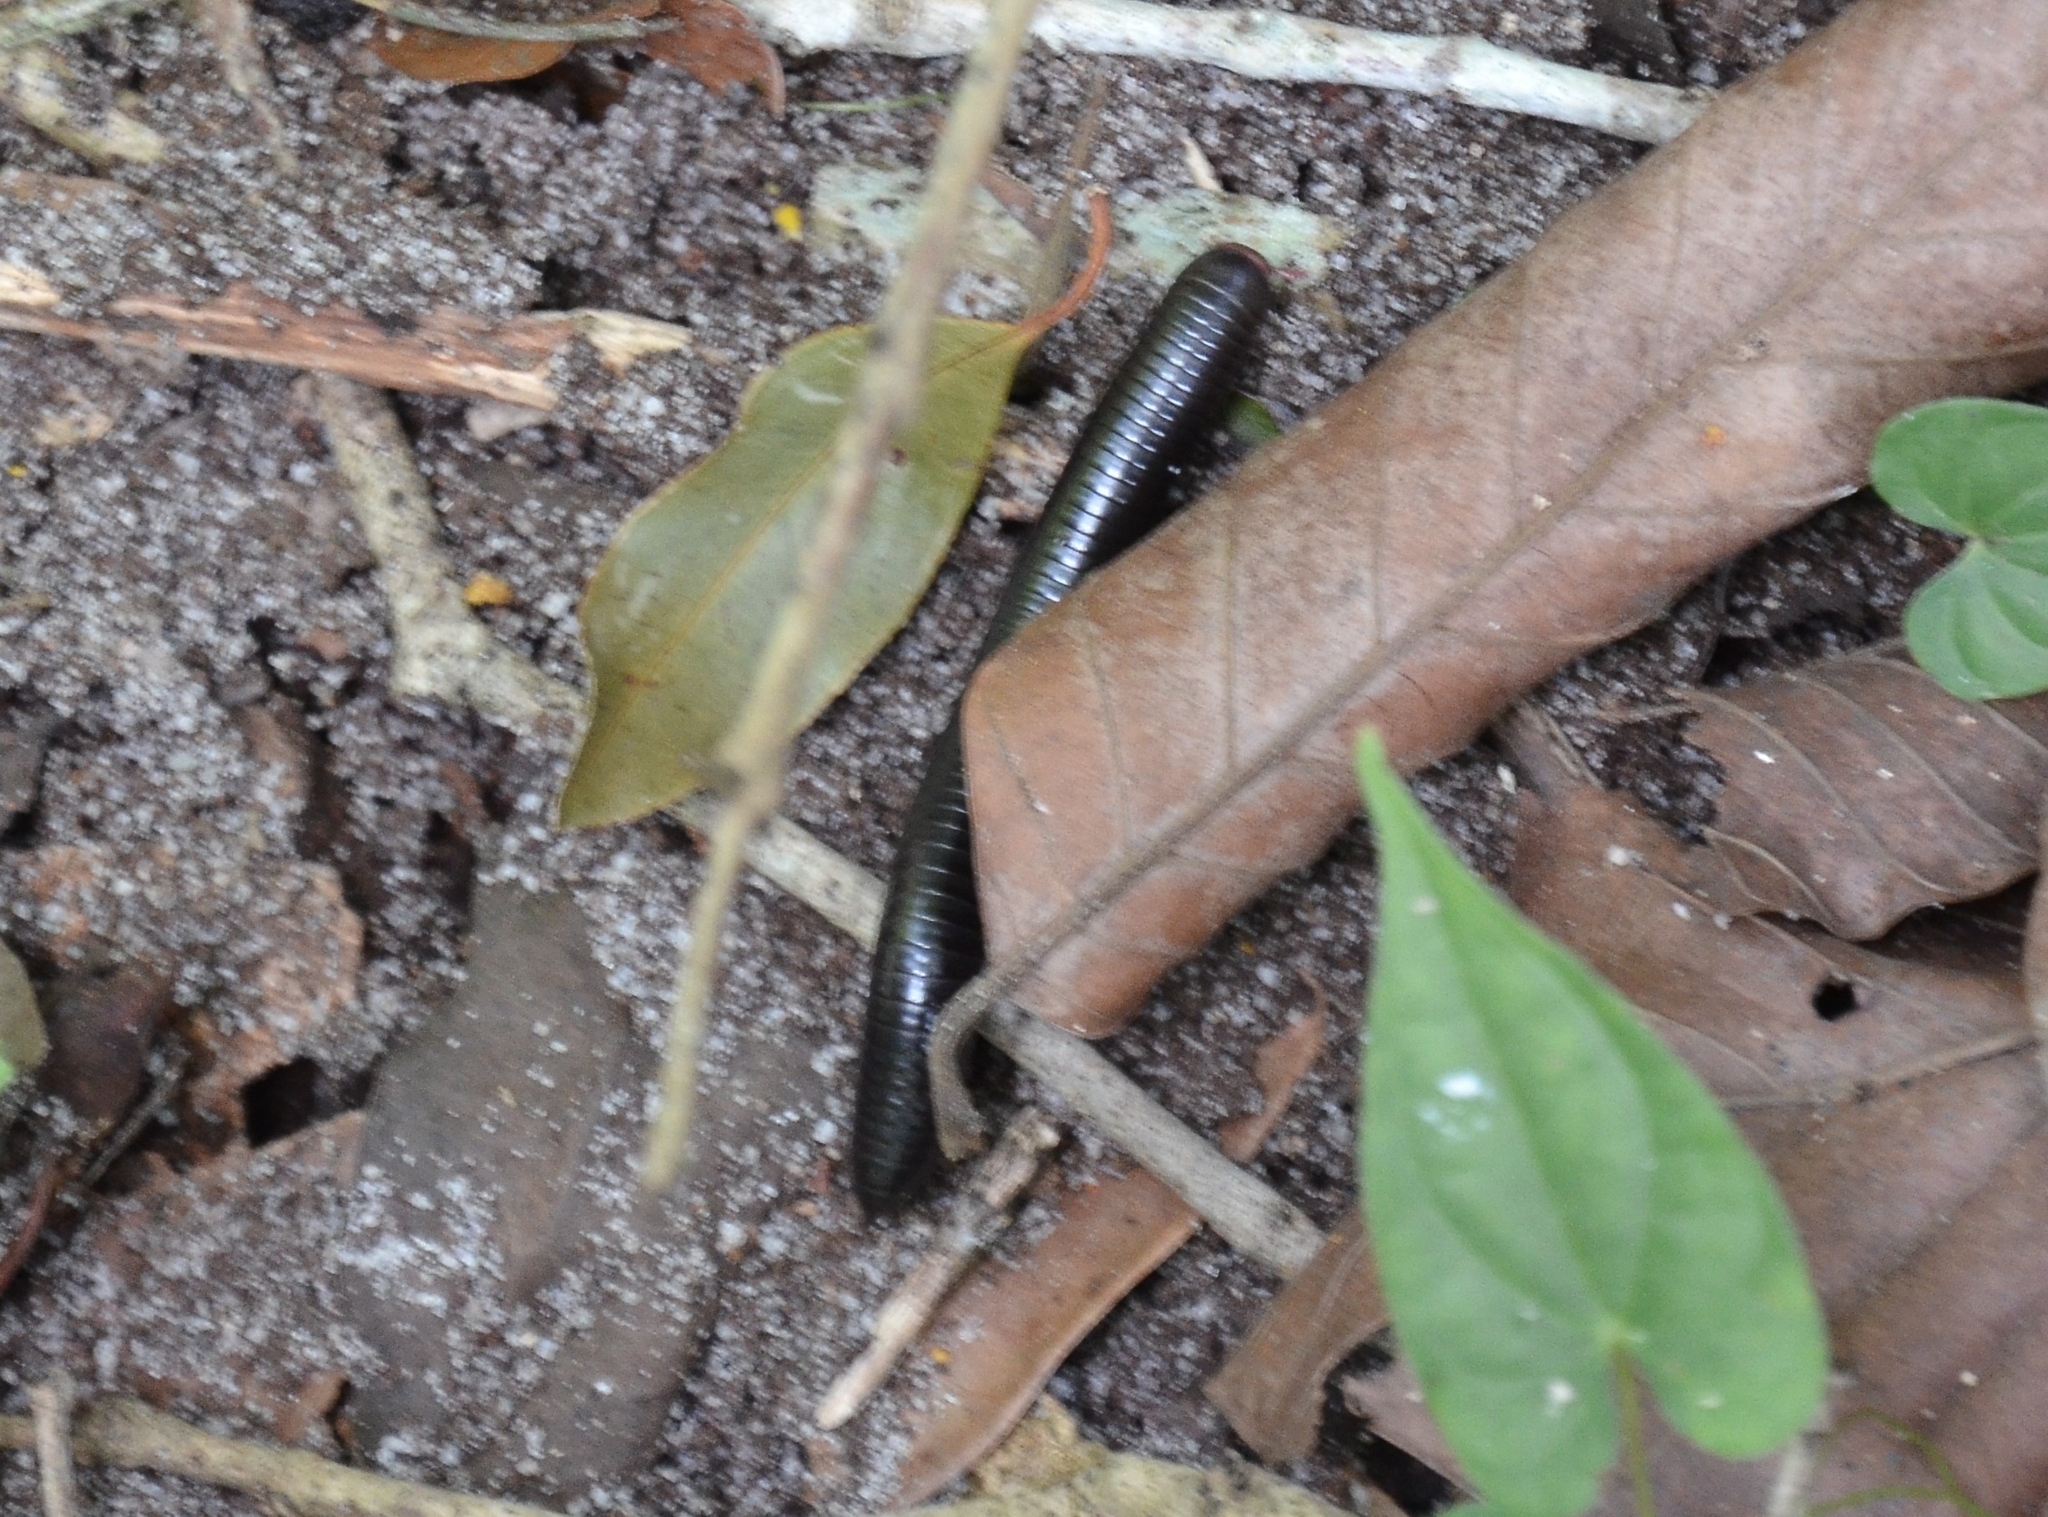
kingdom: Animalia
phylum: Arthropoda
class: Diplopoda
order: Spirostreptida
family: Harpagophoridae
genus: Phyllogonostreptus
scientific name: Phyllogonostreptus nigrolabiatus
